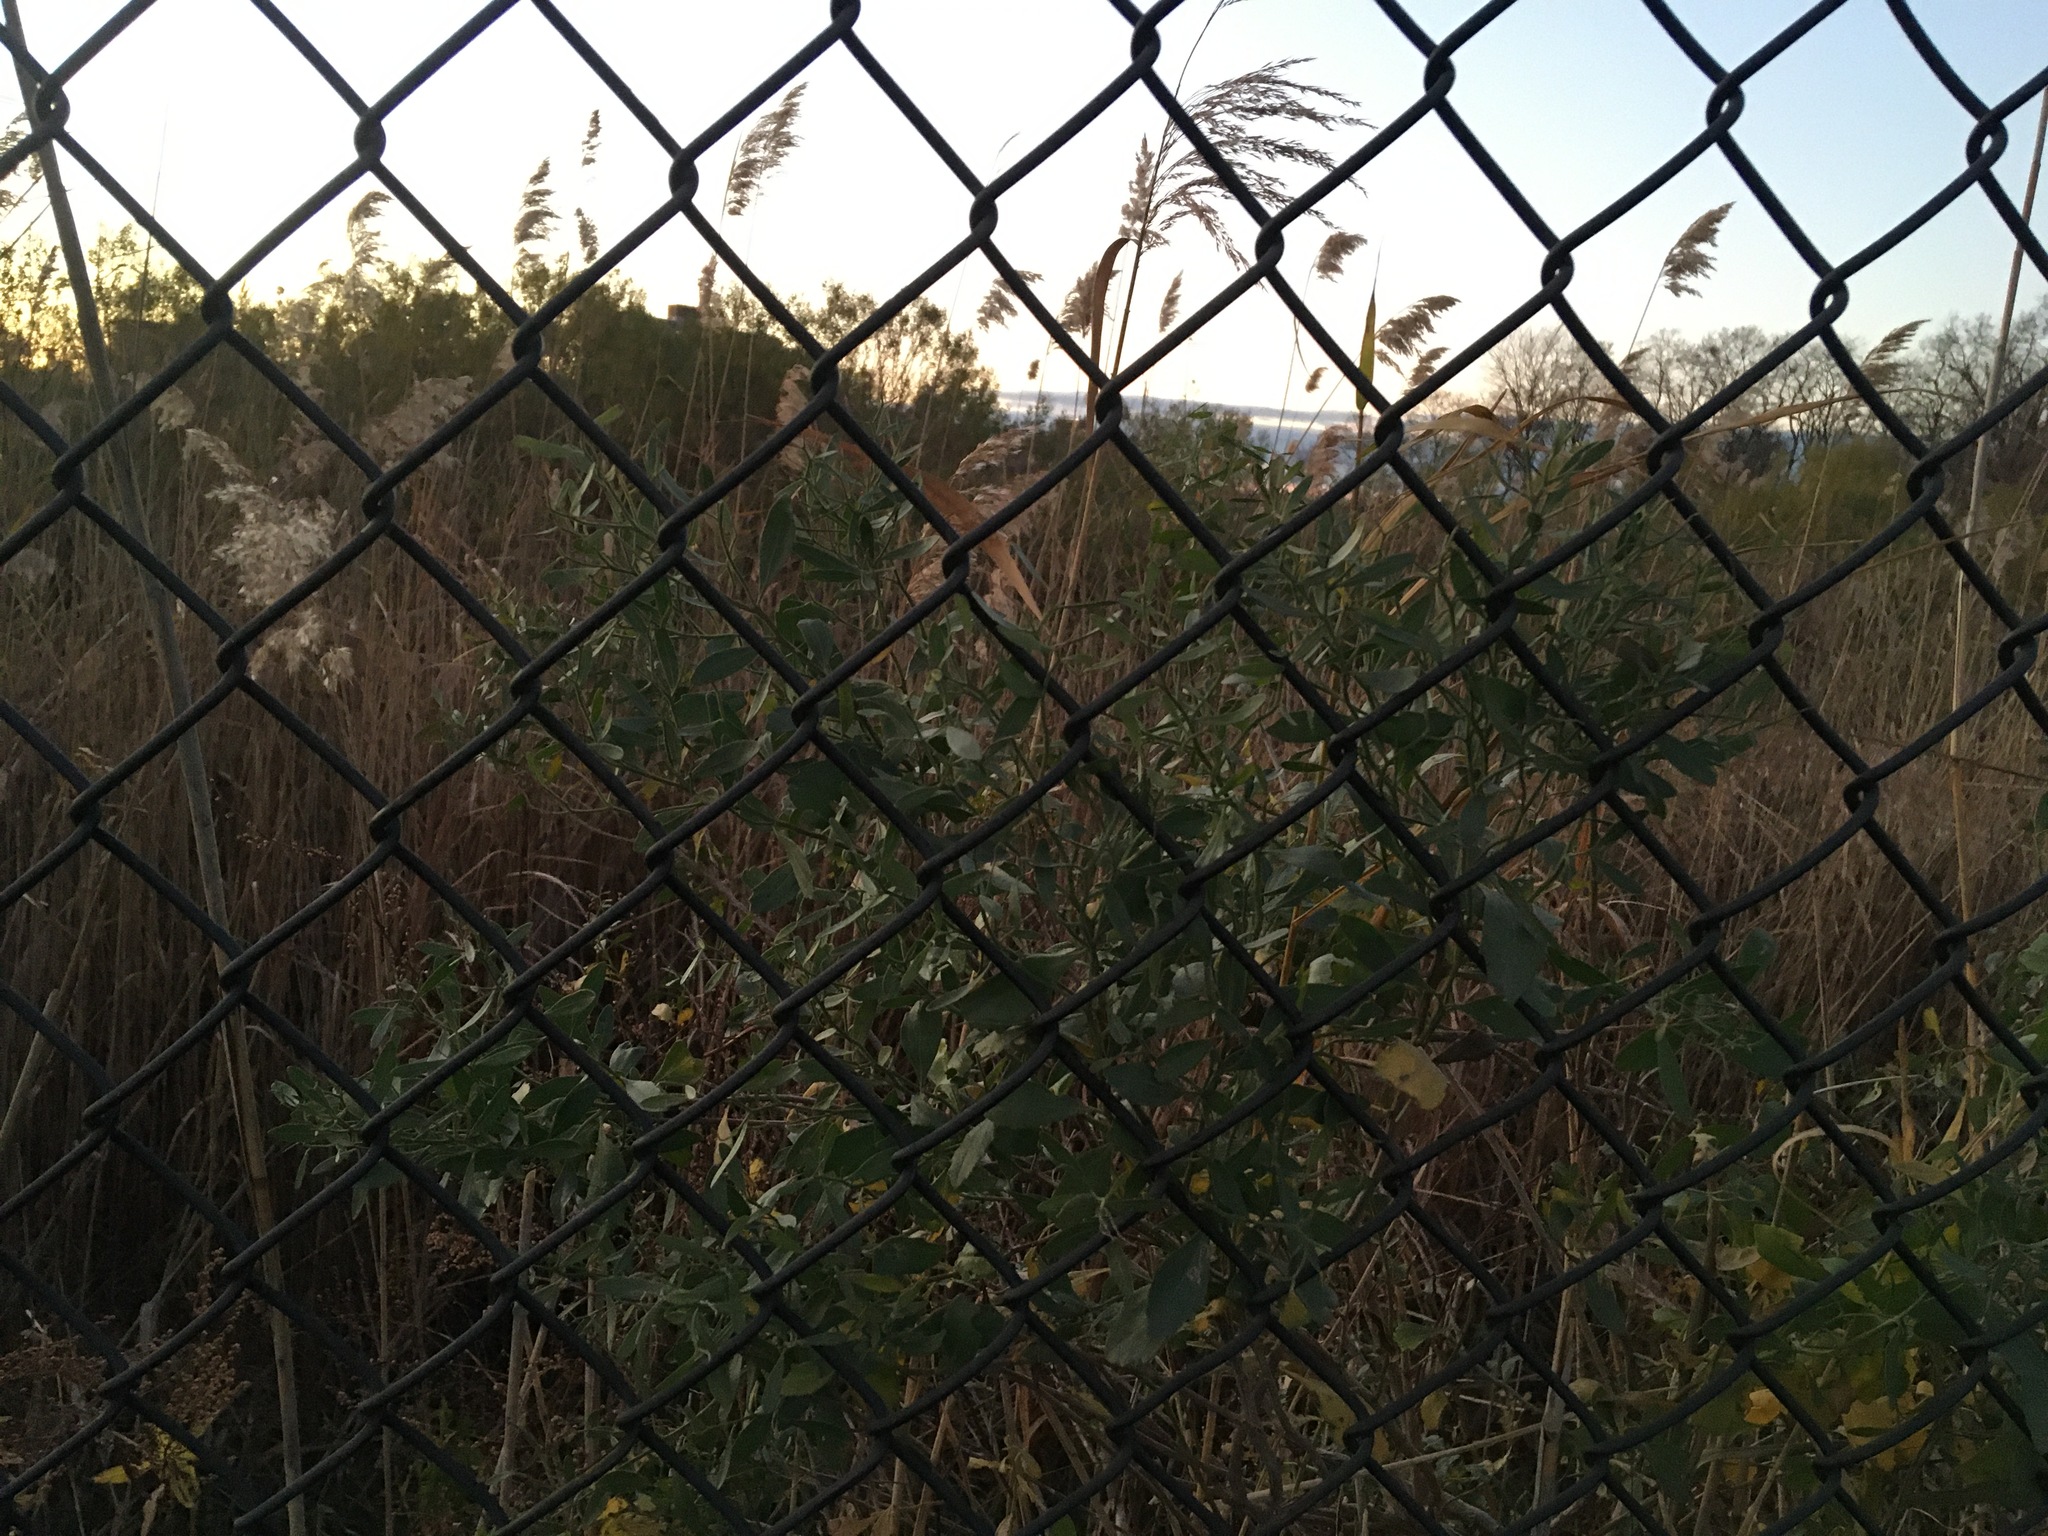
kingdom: Plantae
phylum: Tracheophyta
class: Magnoliopsida
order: Asterales
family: Asteraceae
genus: Baccharis
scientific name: Baccharis halimifolia
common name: Eastern baccharis
